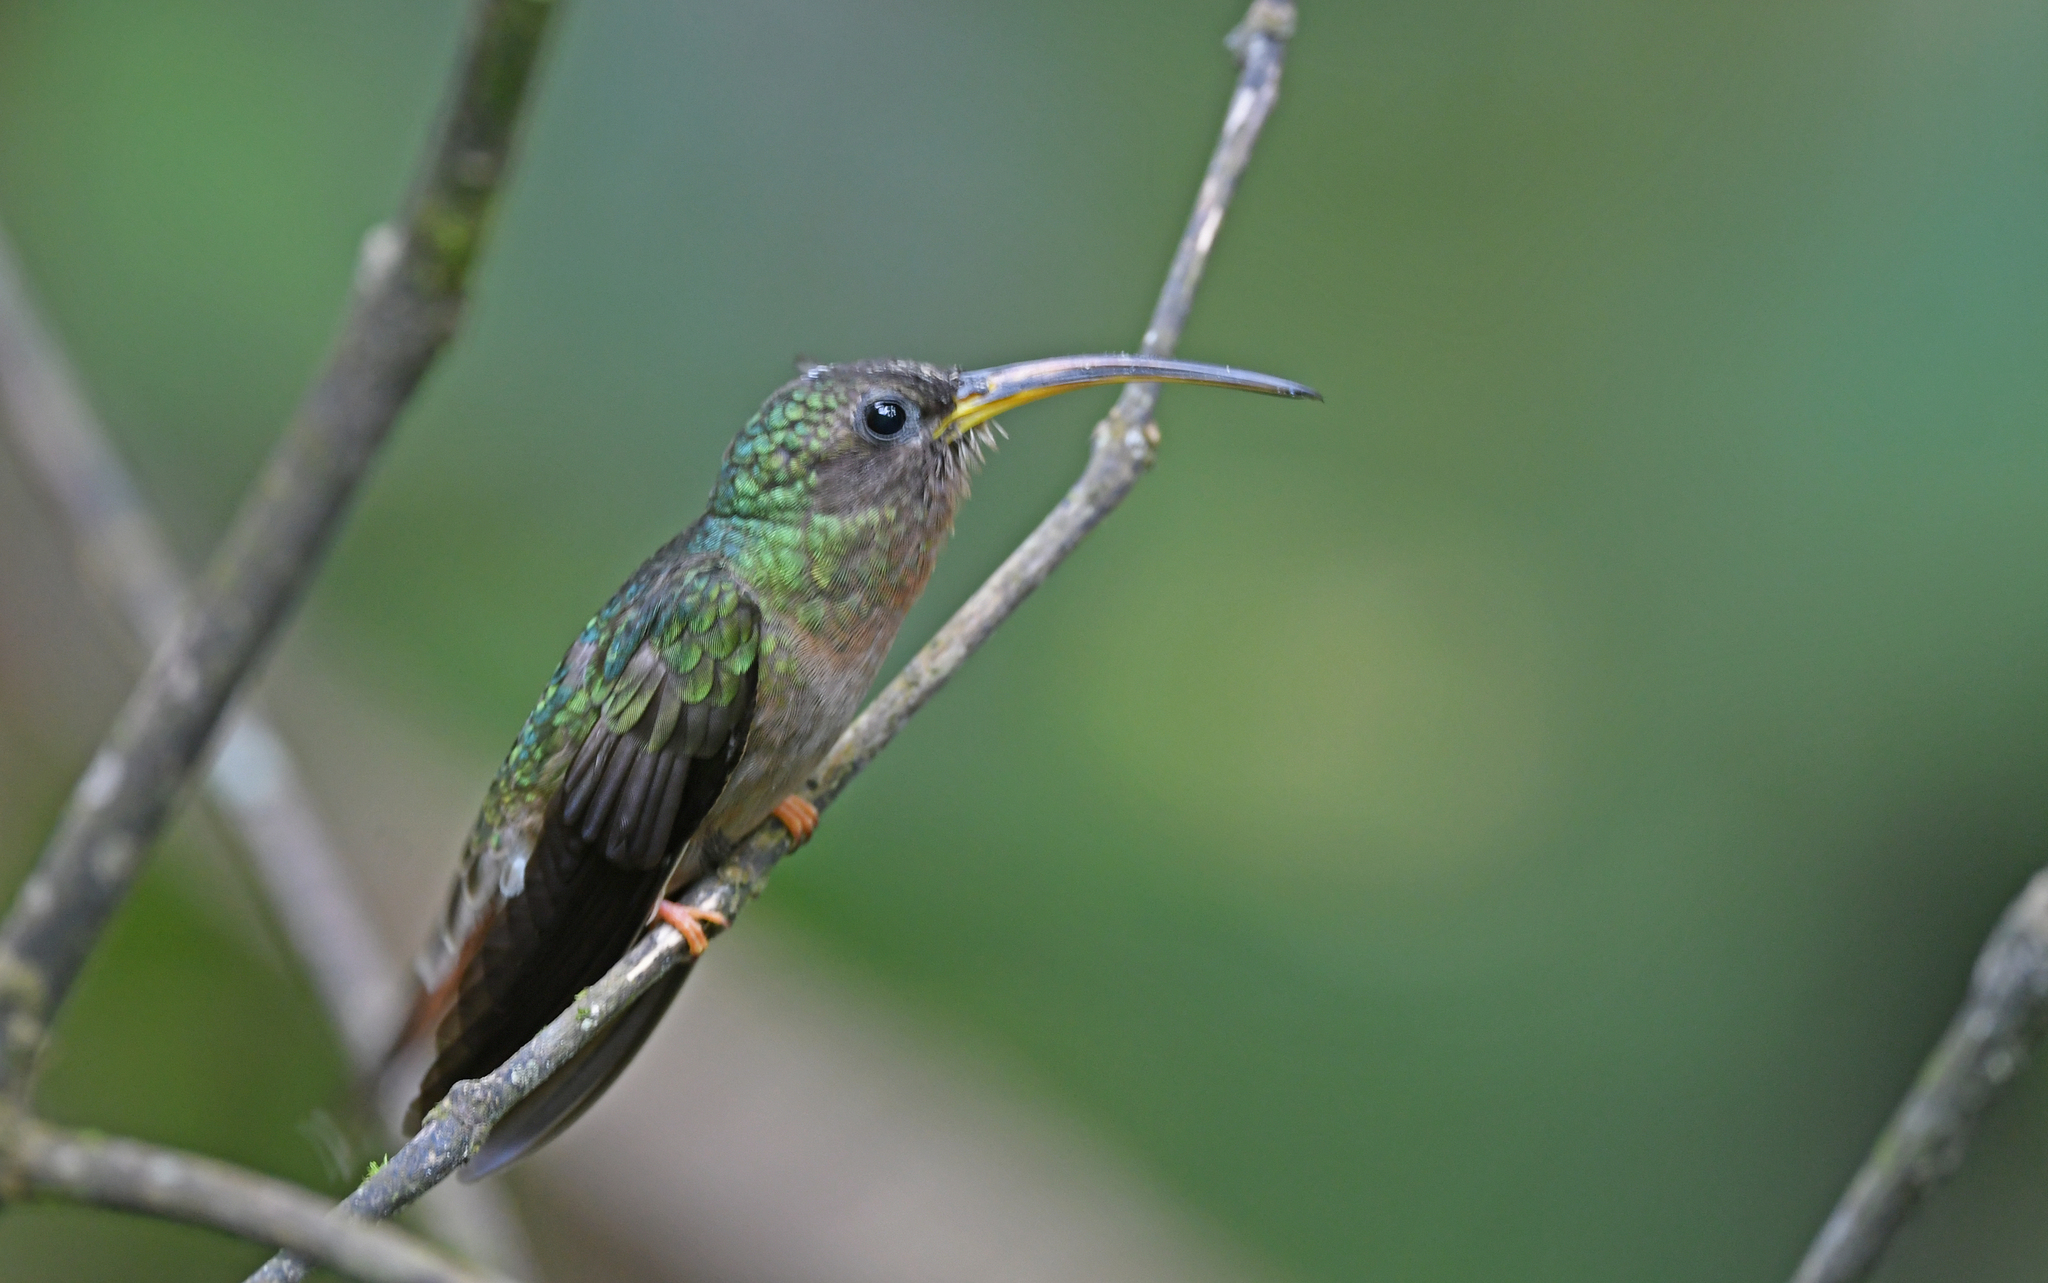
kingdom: Animalia
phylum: Chordata
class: Aves
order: Apodiformes
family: Trochilidae
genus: Glaucis
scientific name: Glaucis hirsutus
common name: Rufous-breasted hermit
